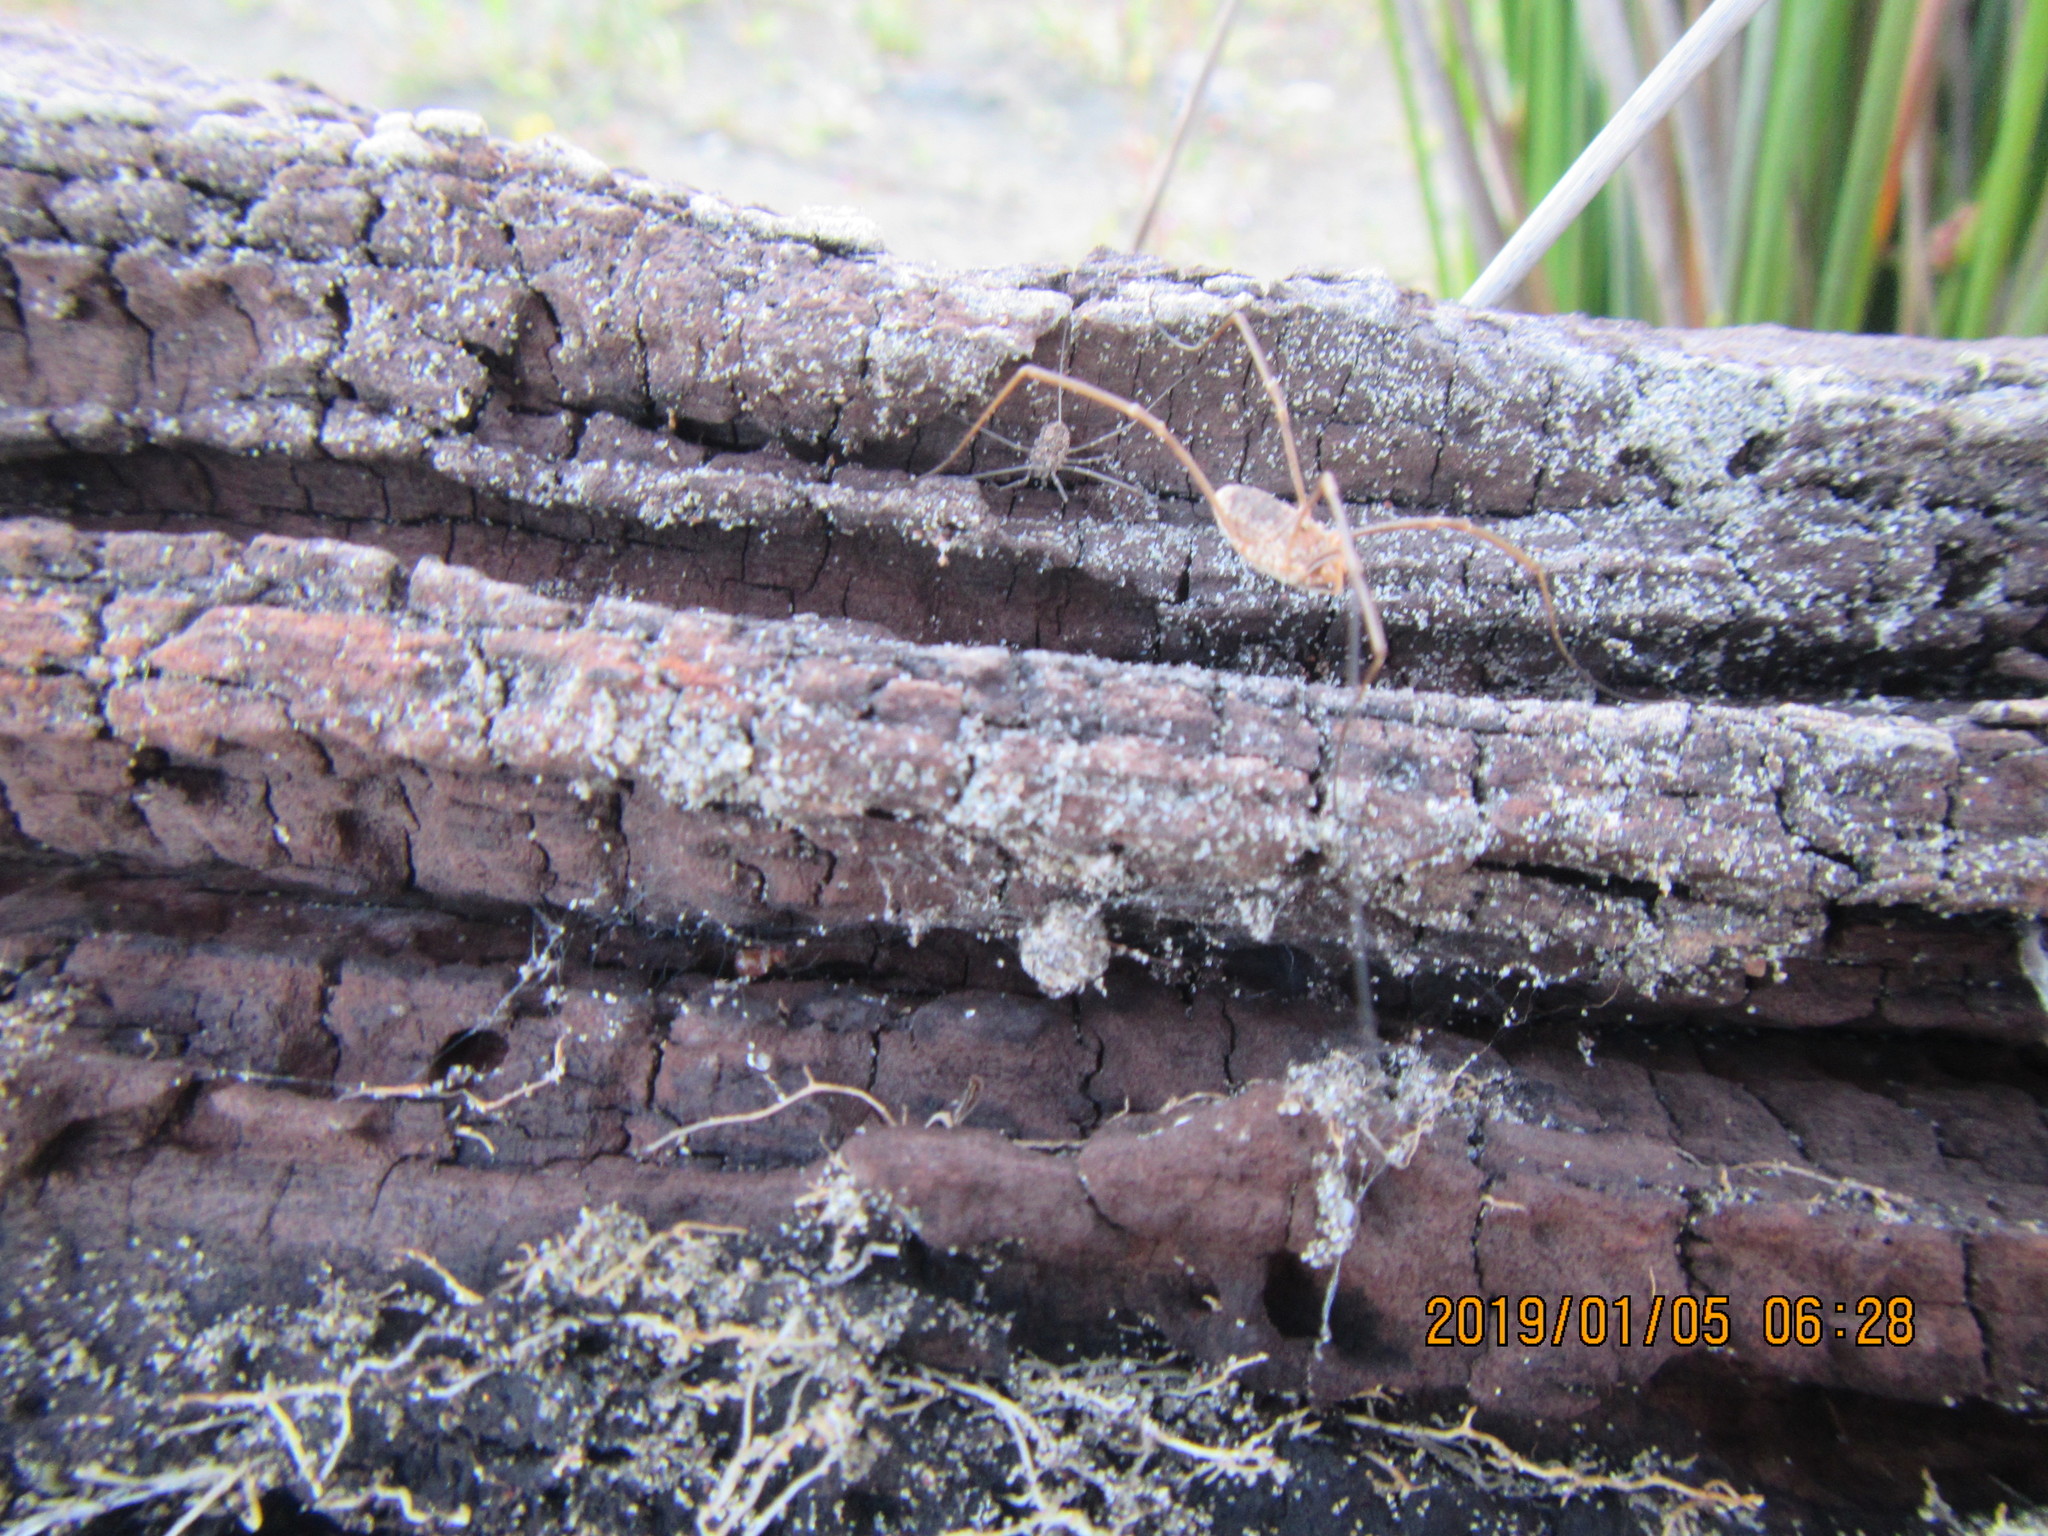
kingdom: Animalia
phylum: Arthropoda
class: Arachnida
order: Opiliones
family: Phalangiidae
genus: Phalangium
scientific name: Phalangium opilio
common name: Daddy longleg
